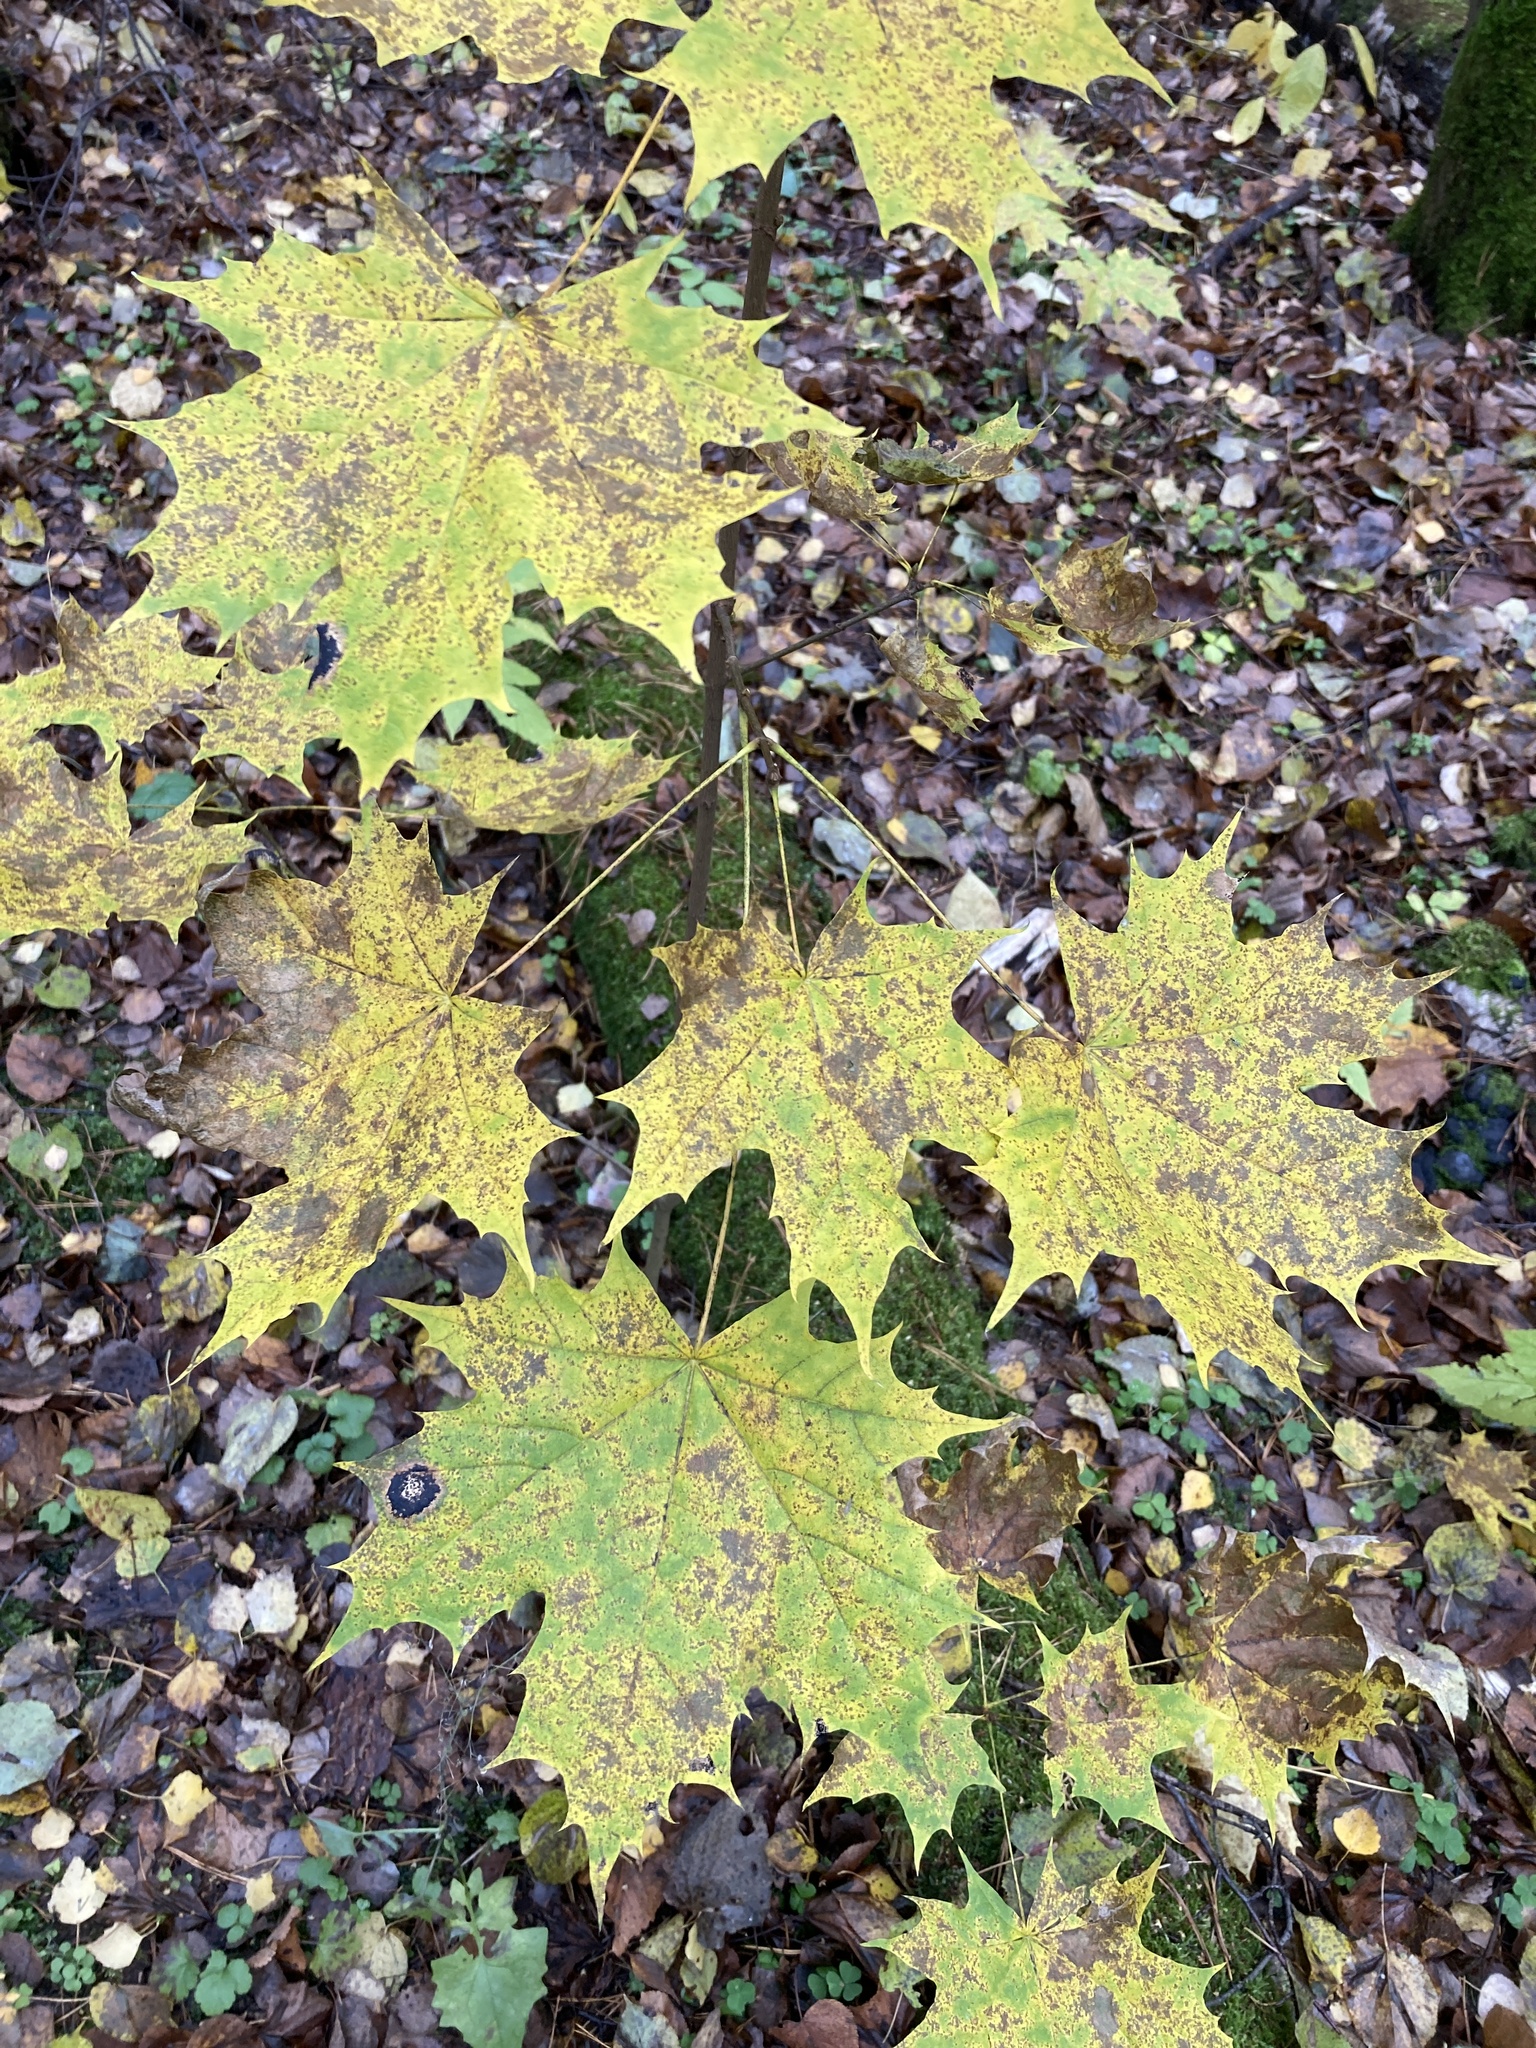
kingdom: Plantae
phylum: Tracheophyta
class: Magnoliopsida
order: Sapindales
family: Sapindaceae
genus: Acer
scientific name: Acer platanoides
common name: Norway maple
